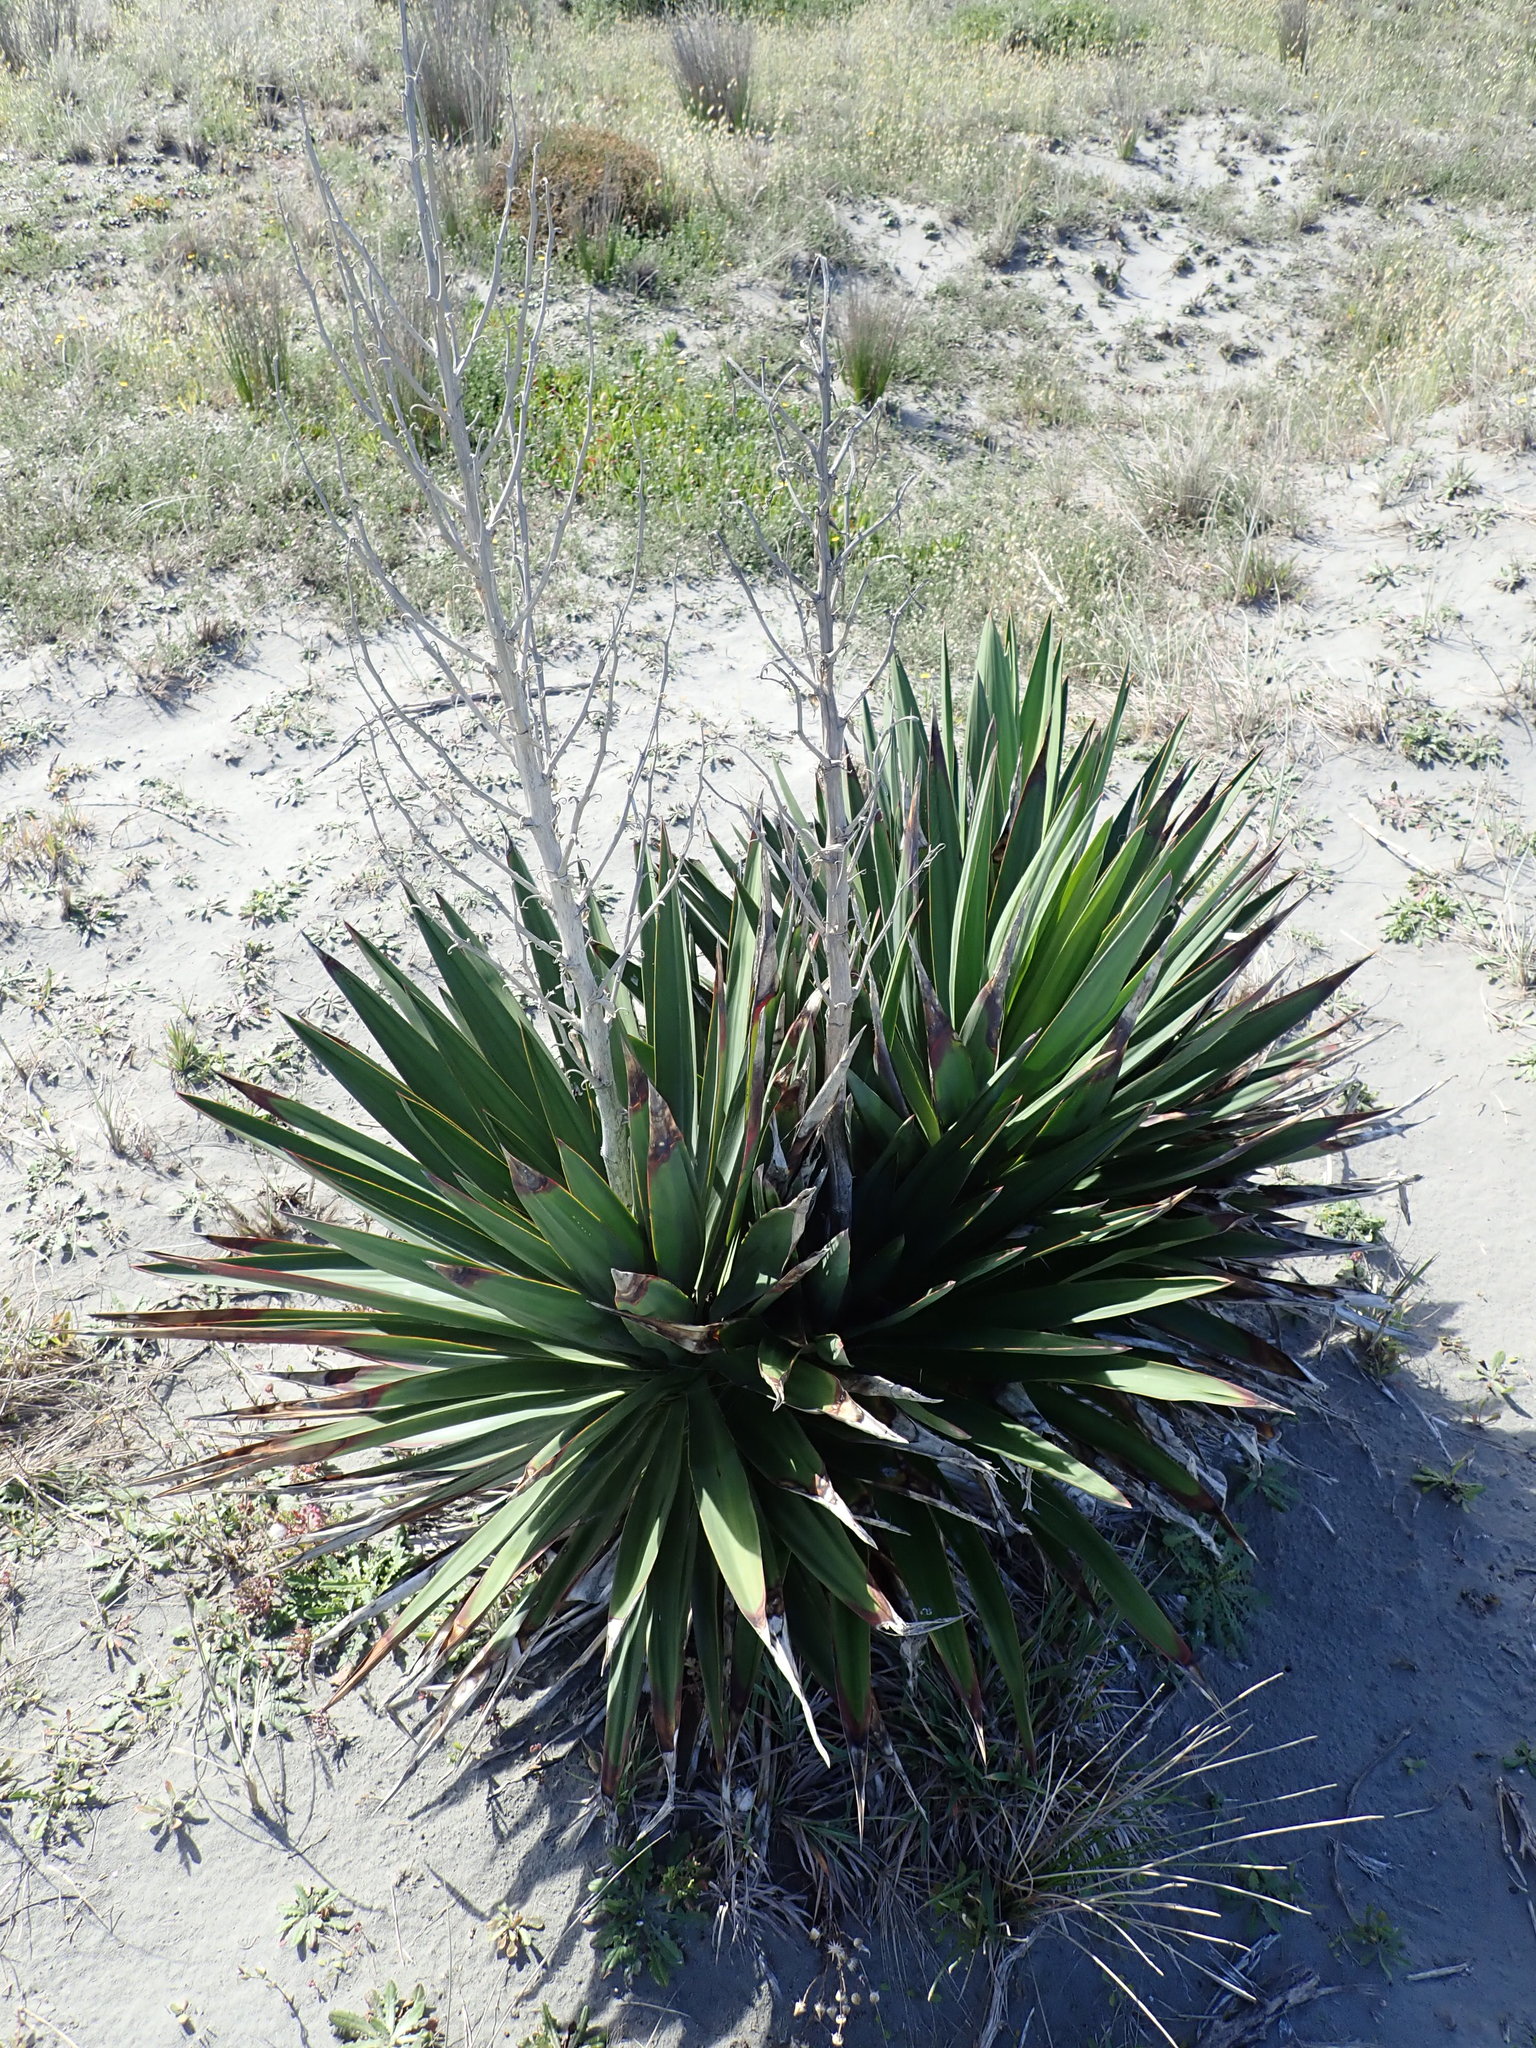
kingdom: Plantae
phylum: Tracheophyta
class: Liliopsida
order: Asparagales
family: Asparagaceae
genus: Yucca
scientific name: Yucca gloriosa
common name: Spanish-dagger
